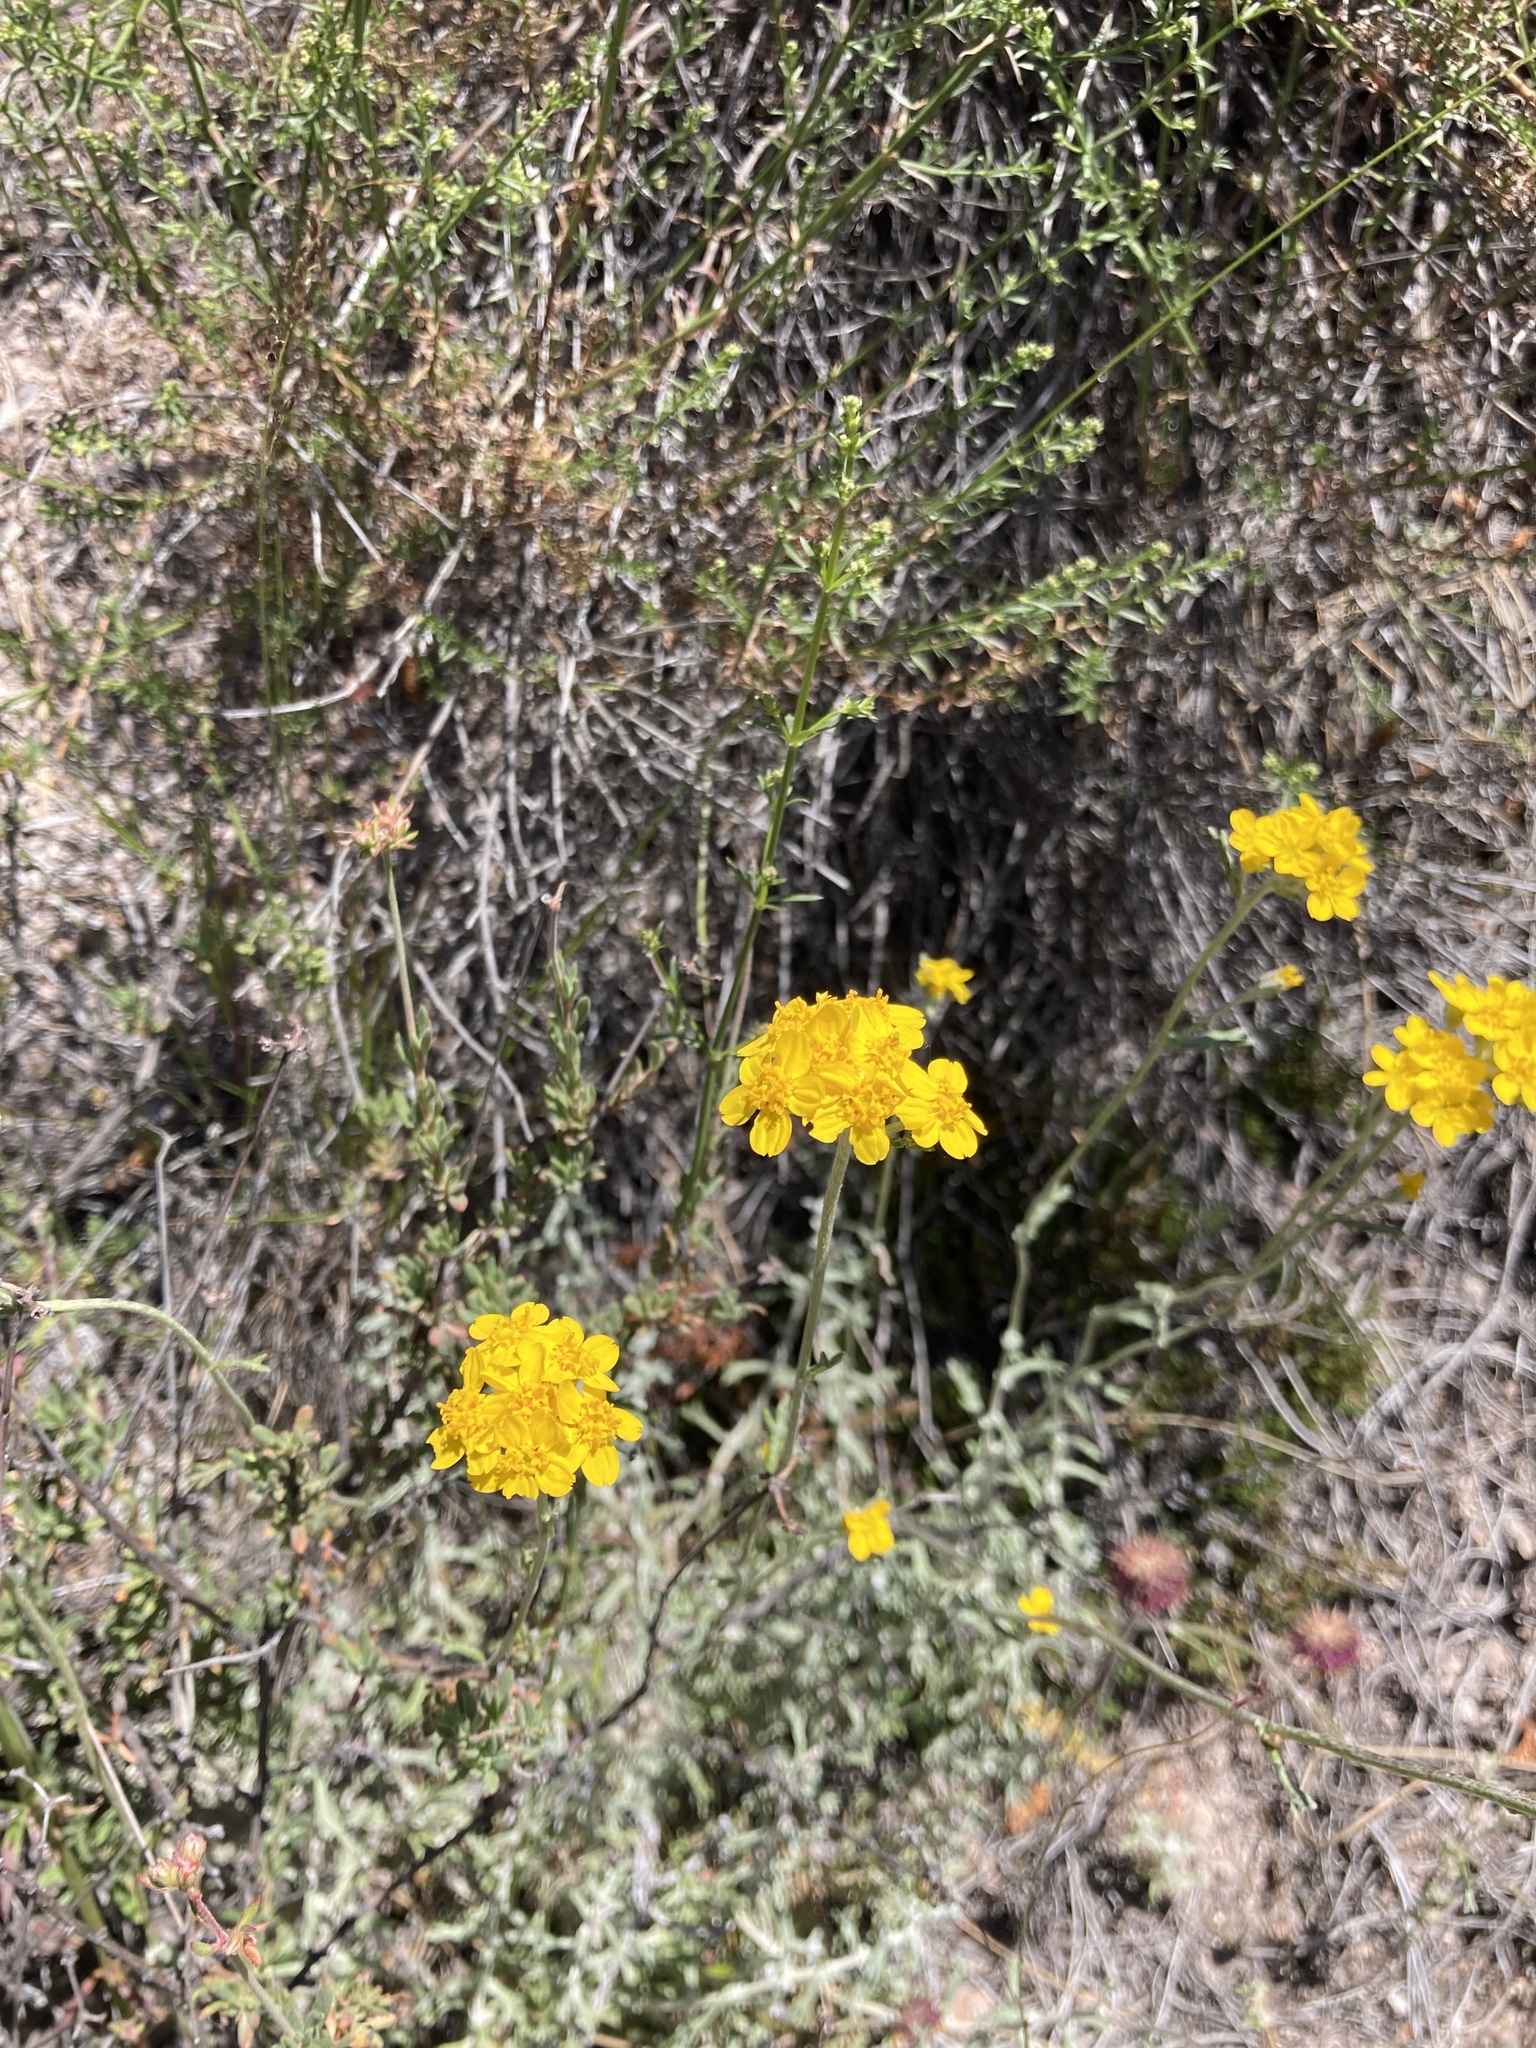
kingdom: Plantae
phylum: Tracheophyta
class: Magnoliopsida
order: Asterales
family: Asteraceae
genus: Eriophyllum
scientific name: Eriophyllum confertiflorum
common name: Golden-yarrow
